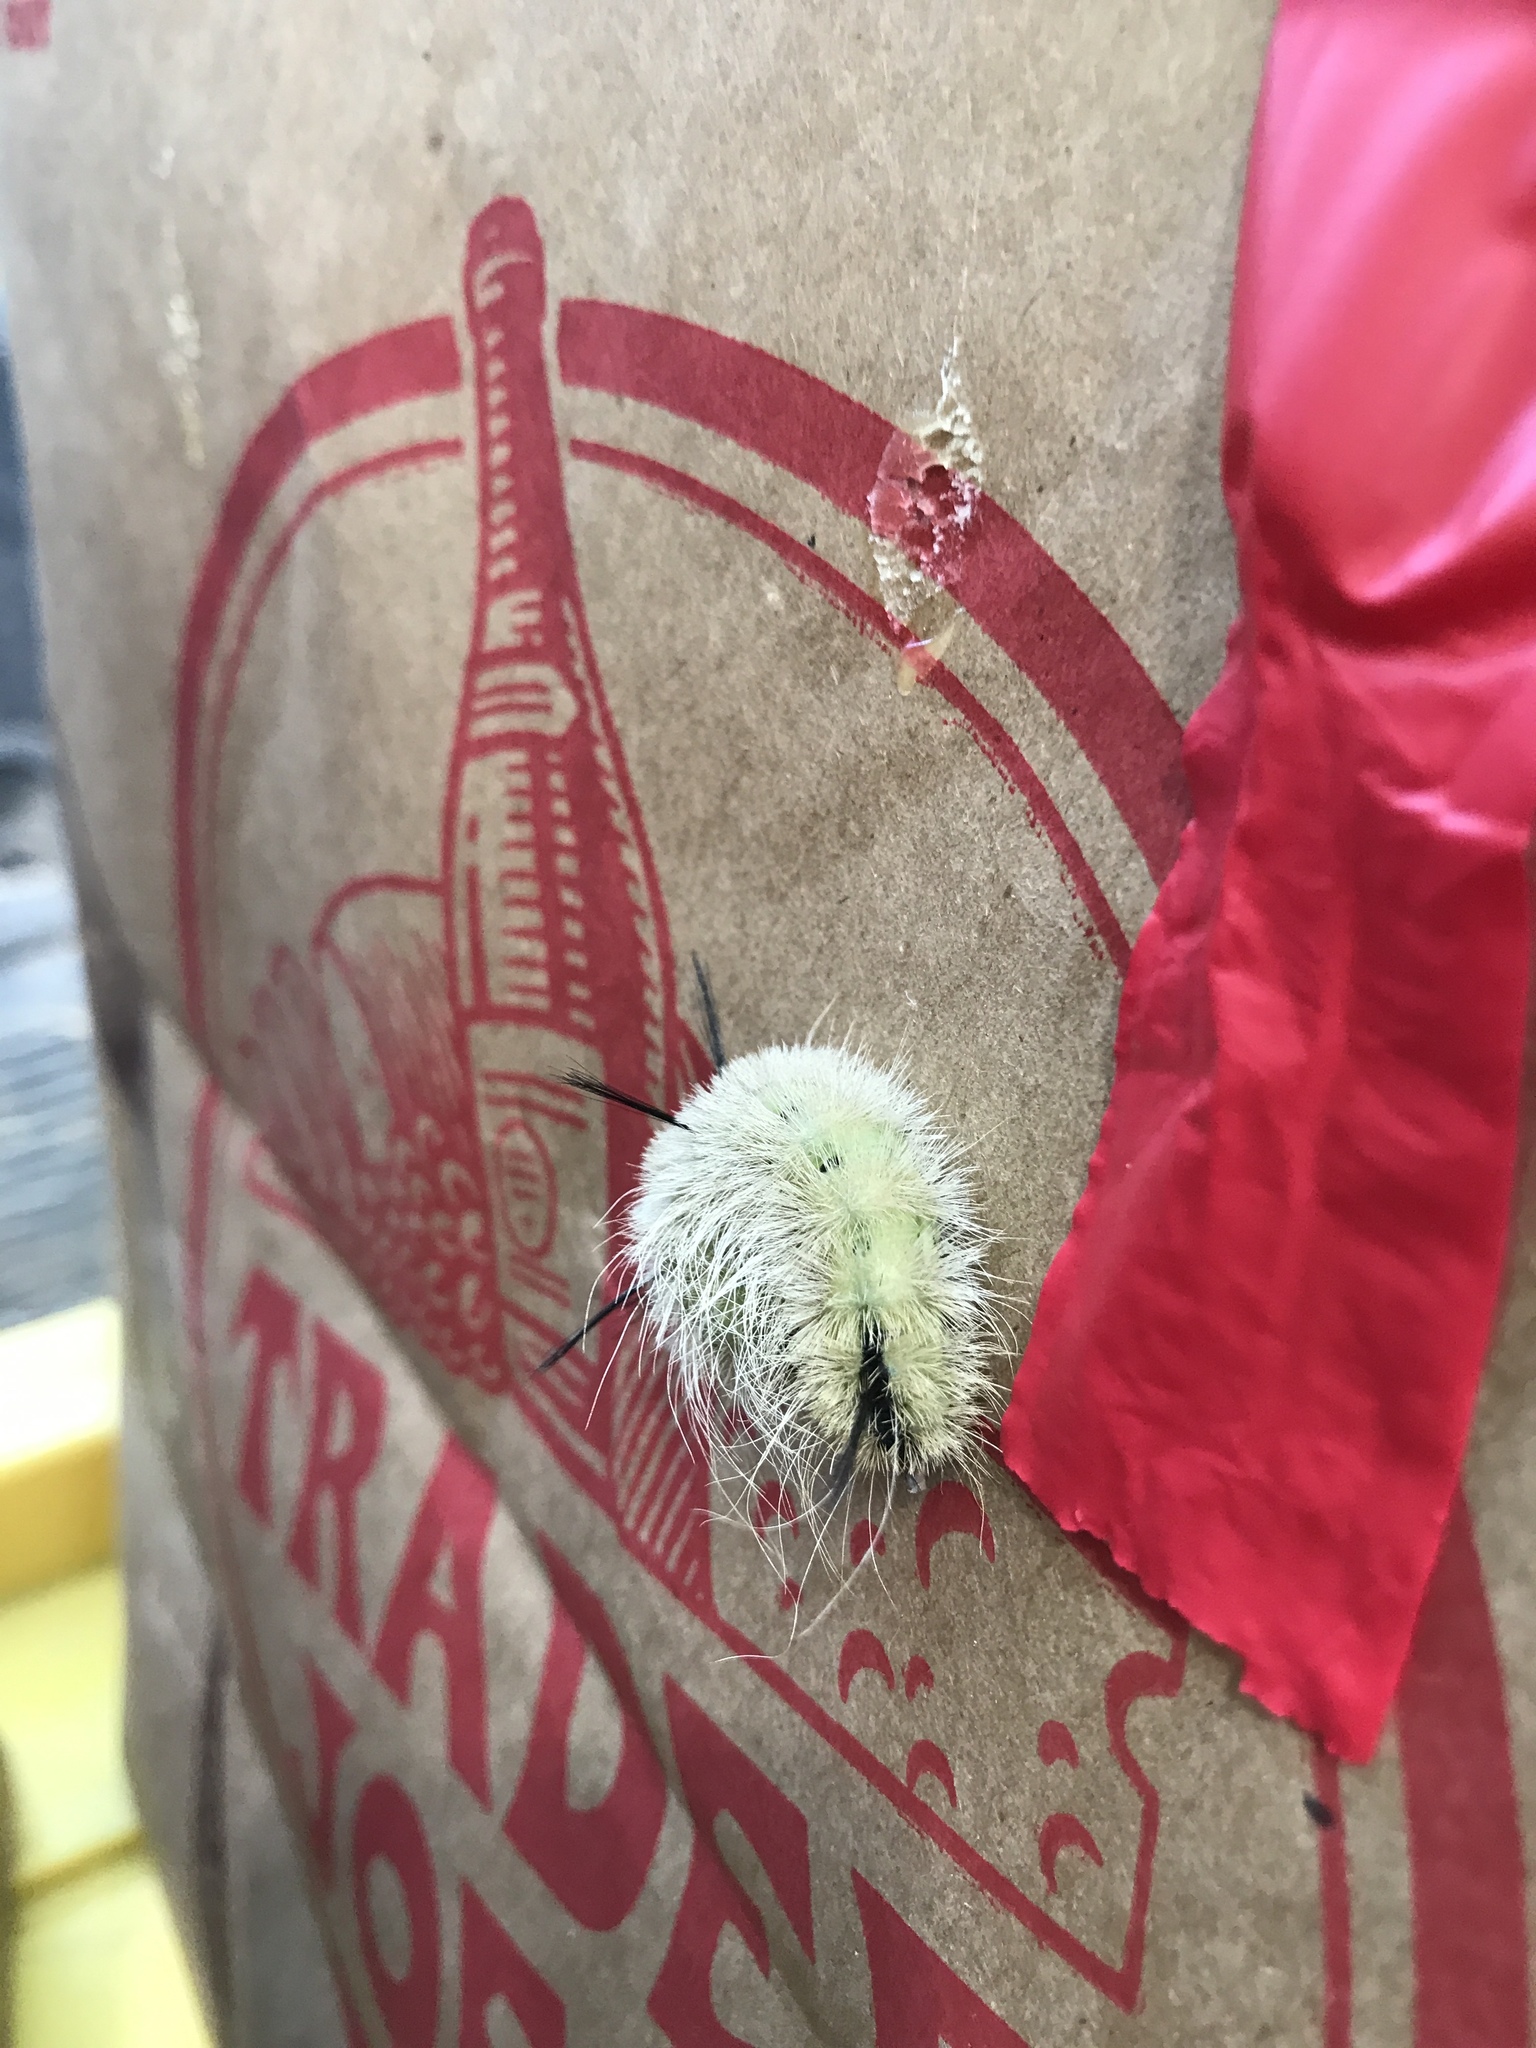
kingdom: Animalia
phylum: Arthropoda
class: Insecta
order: Lepidoptera
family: Noctuidae
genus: Acronicta
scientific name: Acronicta americana
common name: American dagger
